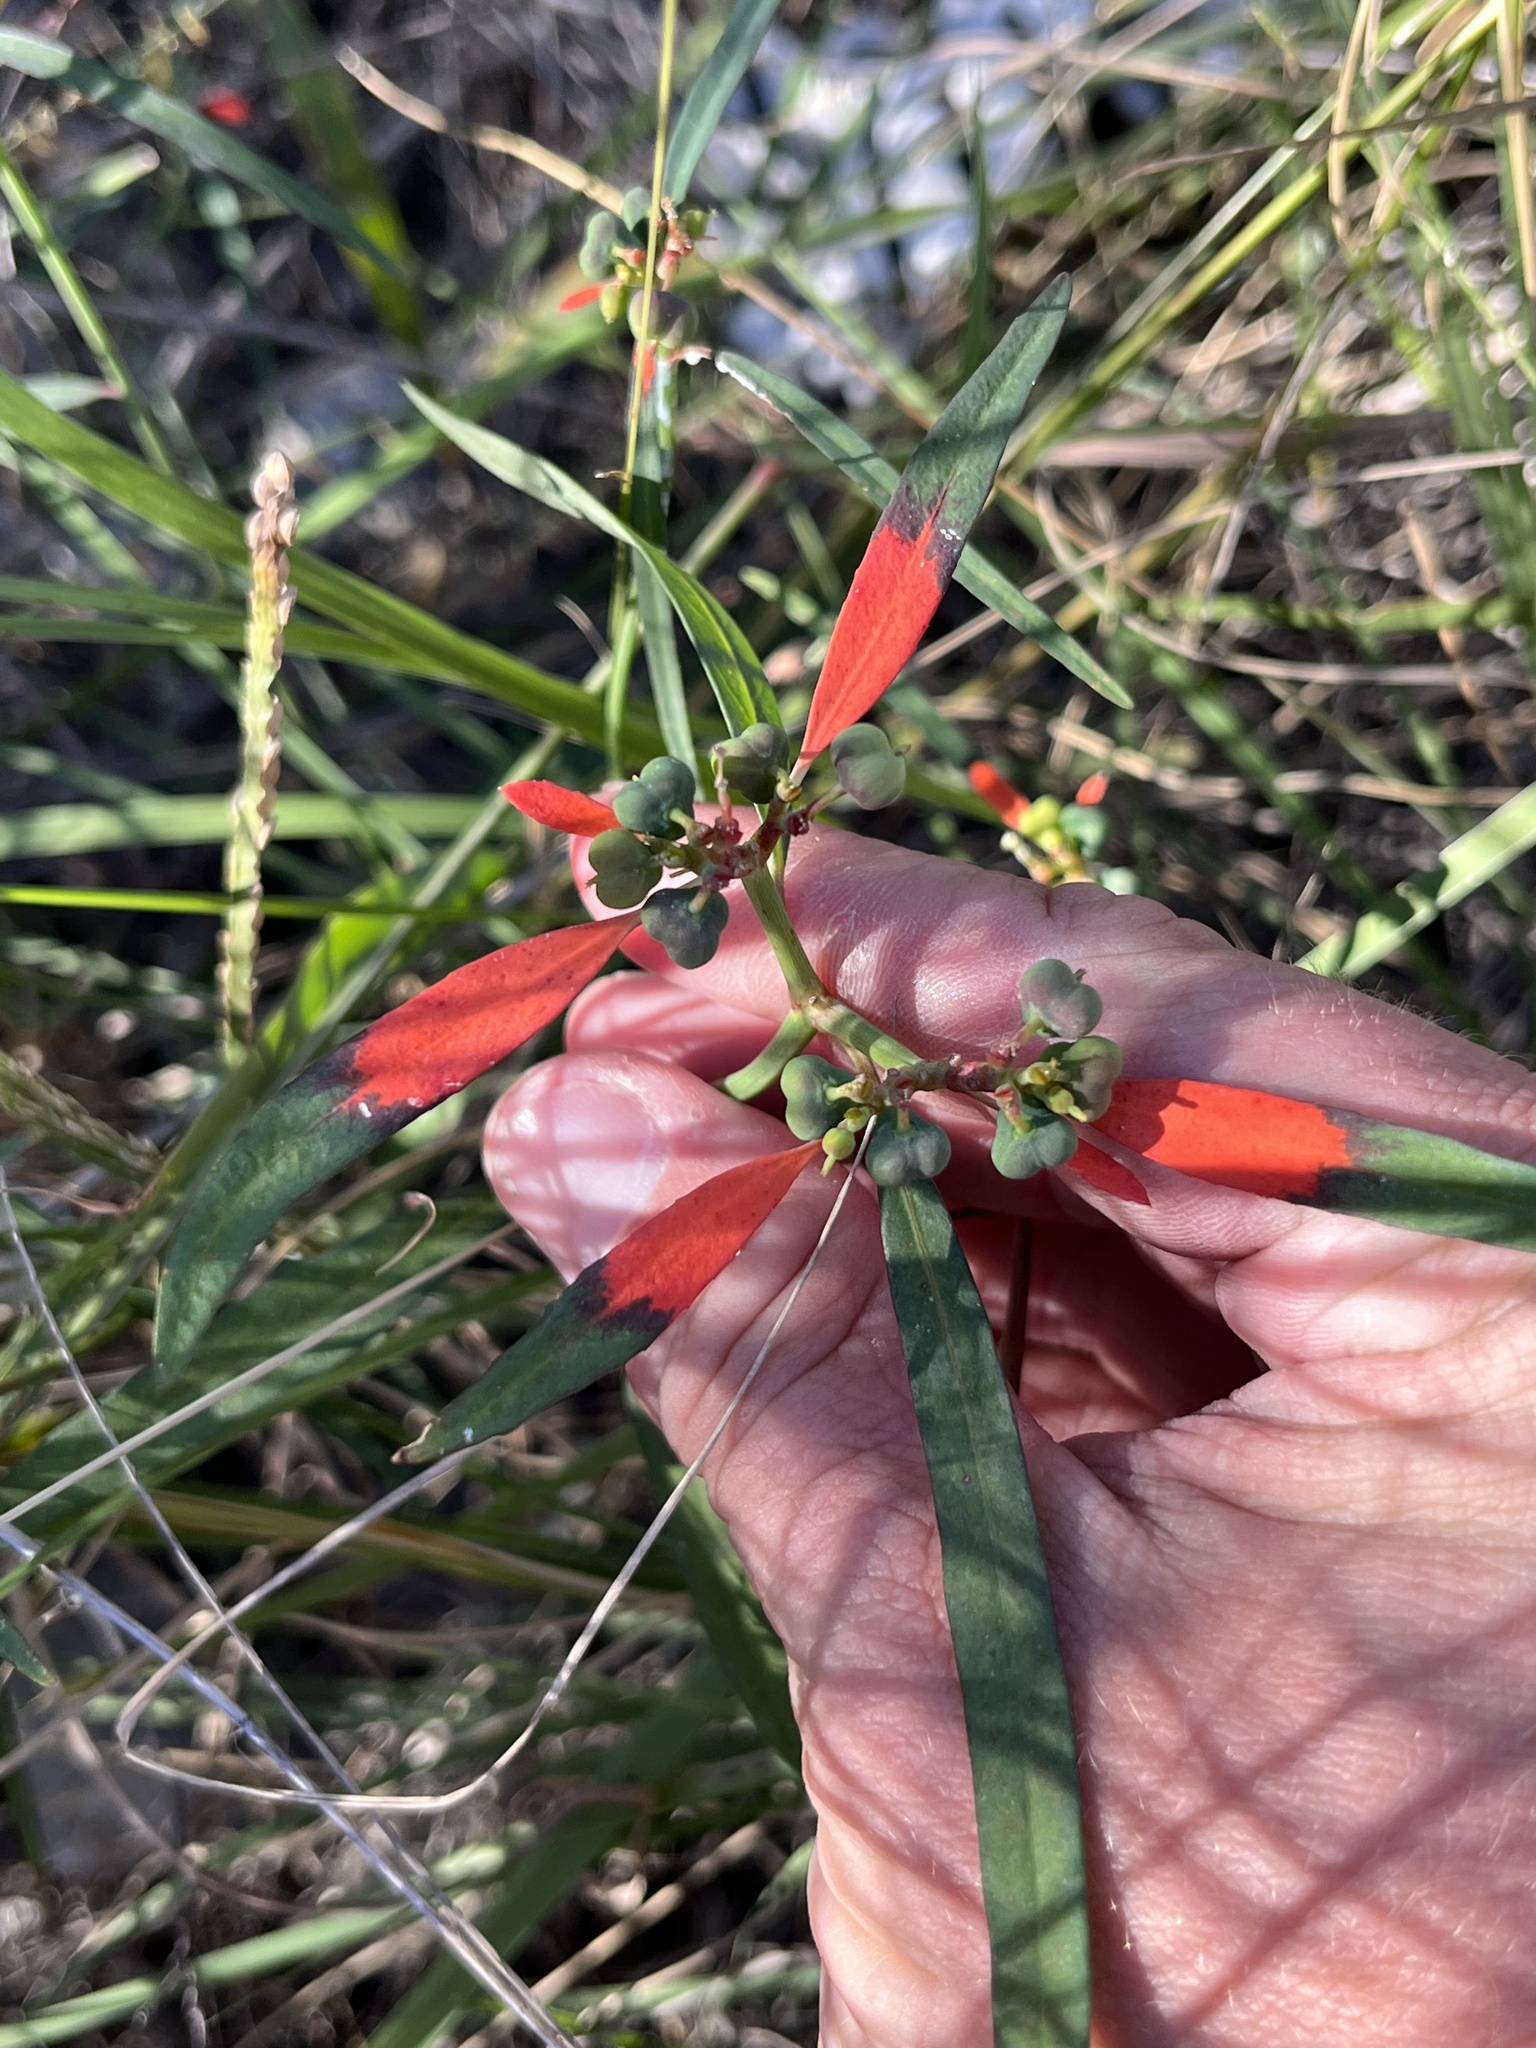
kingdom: Plantae
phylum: Tracheophyta
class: Magnoliopsida
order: Malpighiales
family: Euphorbiaceae
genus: Euphorbia
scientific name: Euphorbia heterophylla
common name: Mexican fireplant
